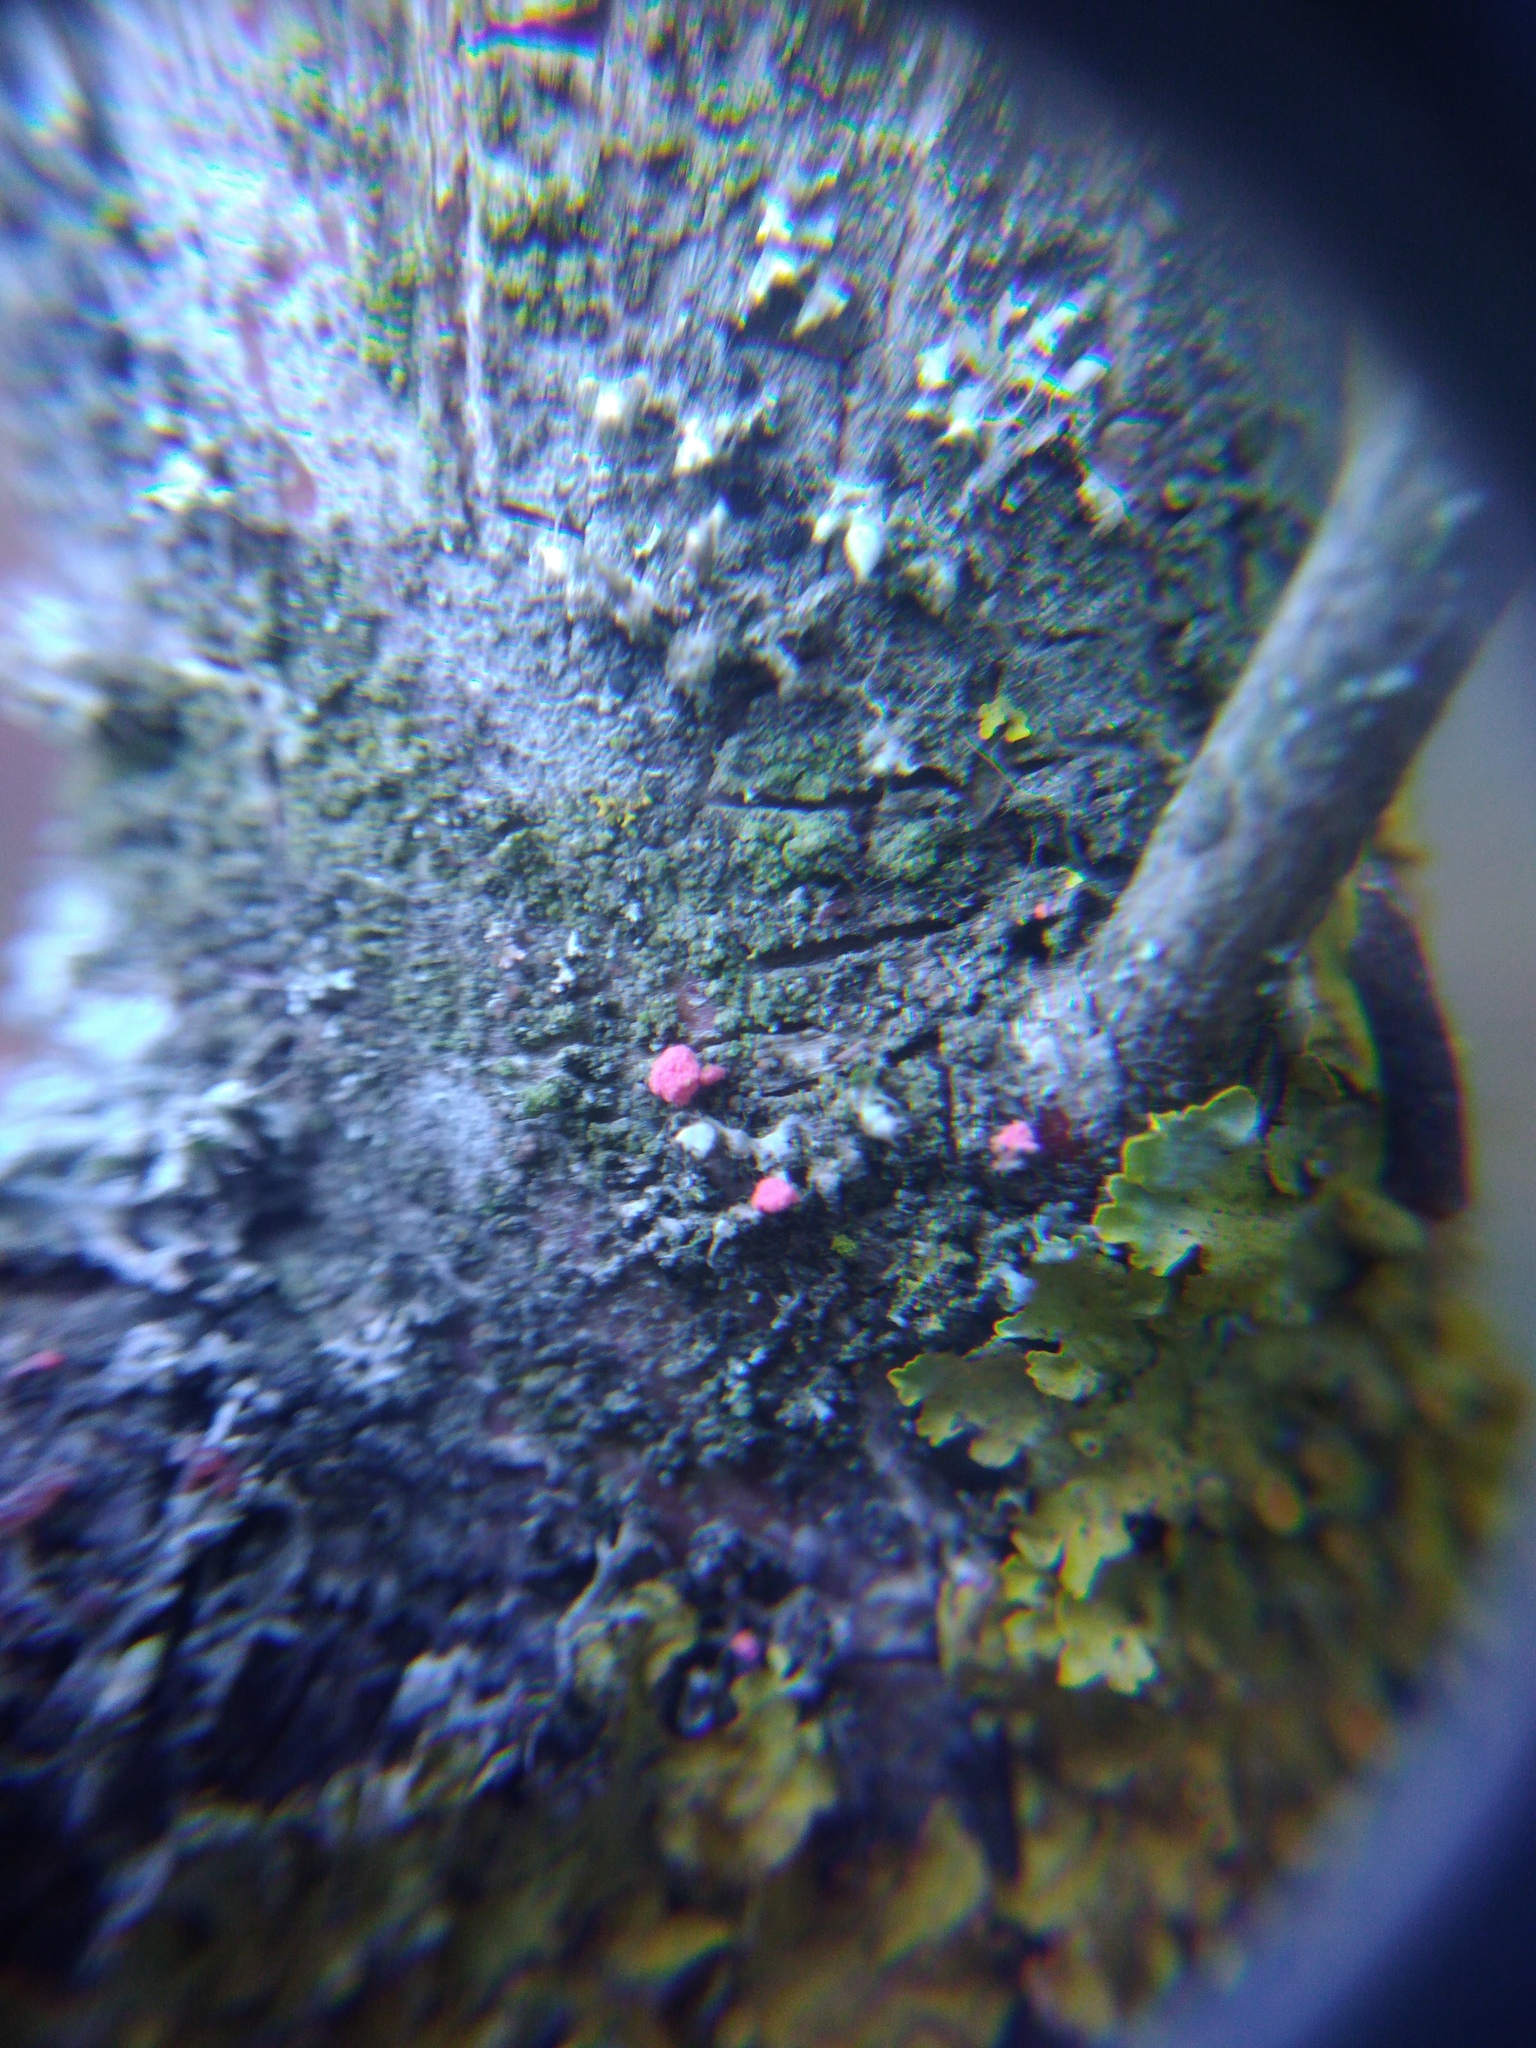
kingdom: Fungi
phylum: Ascomycota
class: Sordariomycetes
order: Hypocreales
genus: Illosporiopsis
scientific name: Illosporiopsis christiansenii
